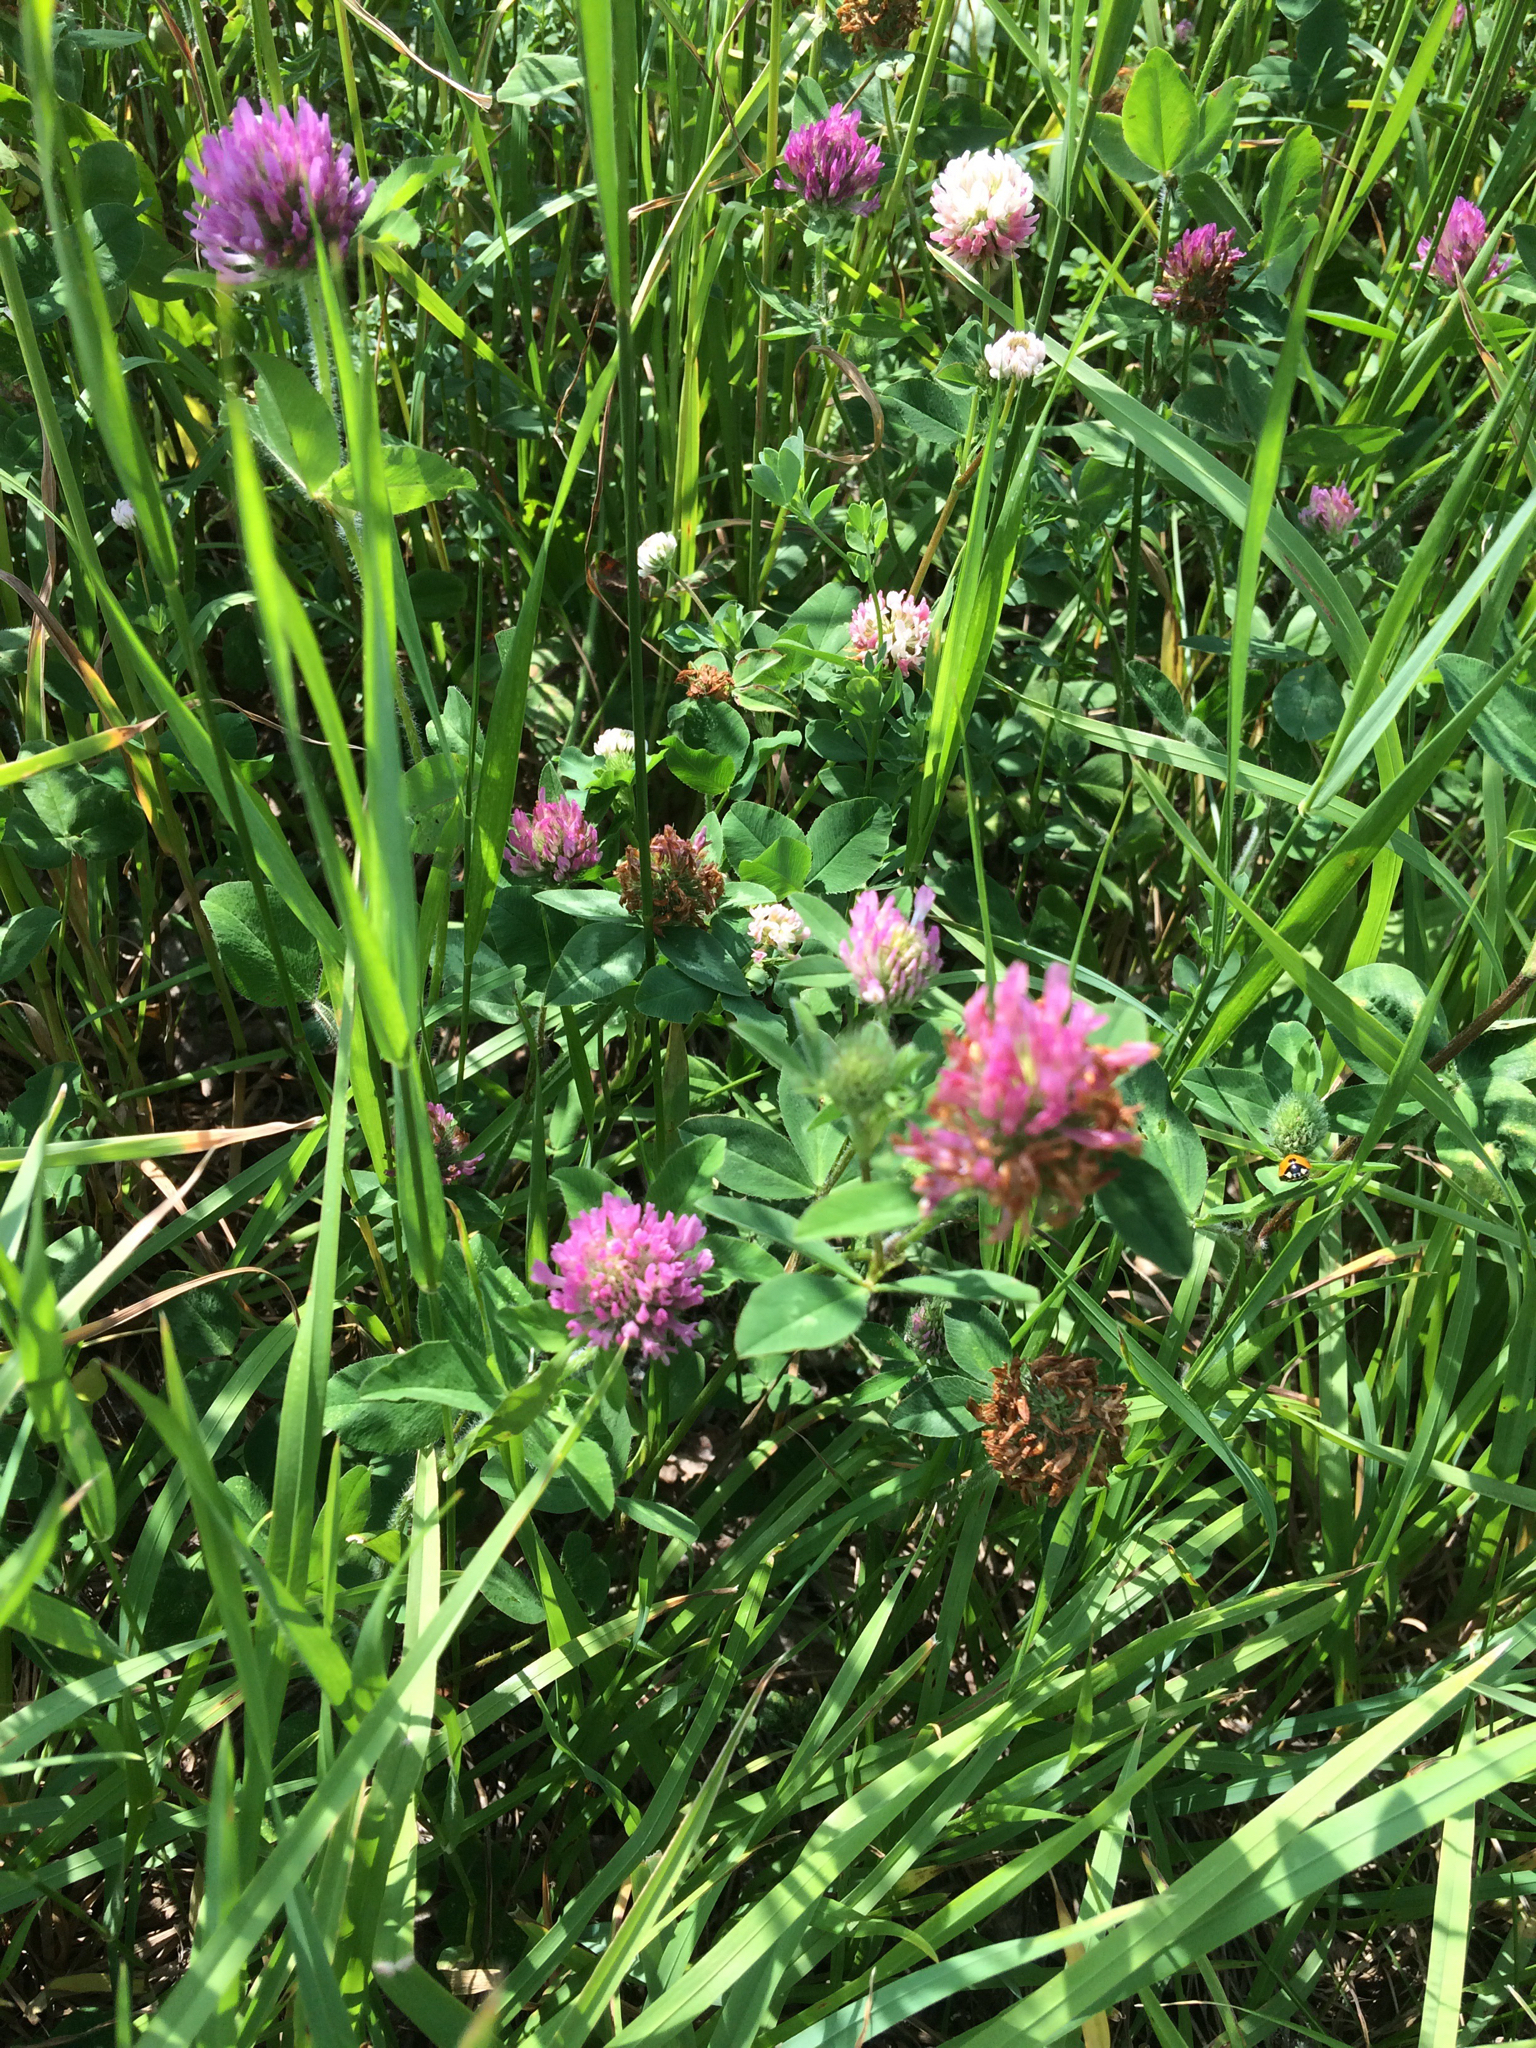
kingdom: Plantae
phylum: Tracheophyta
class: Magnoliopsida
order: Fabales
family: Fabaceae
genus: Trifolium
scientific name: Trifolium pratense
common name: Red clover
